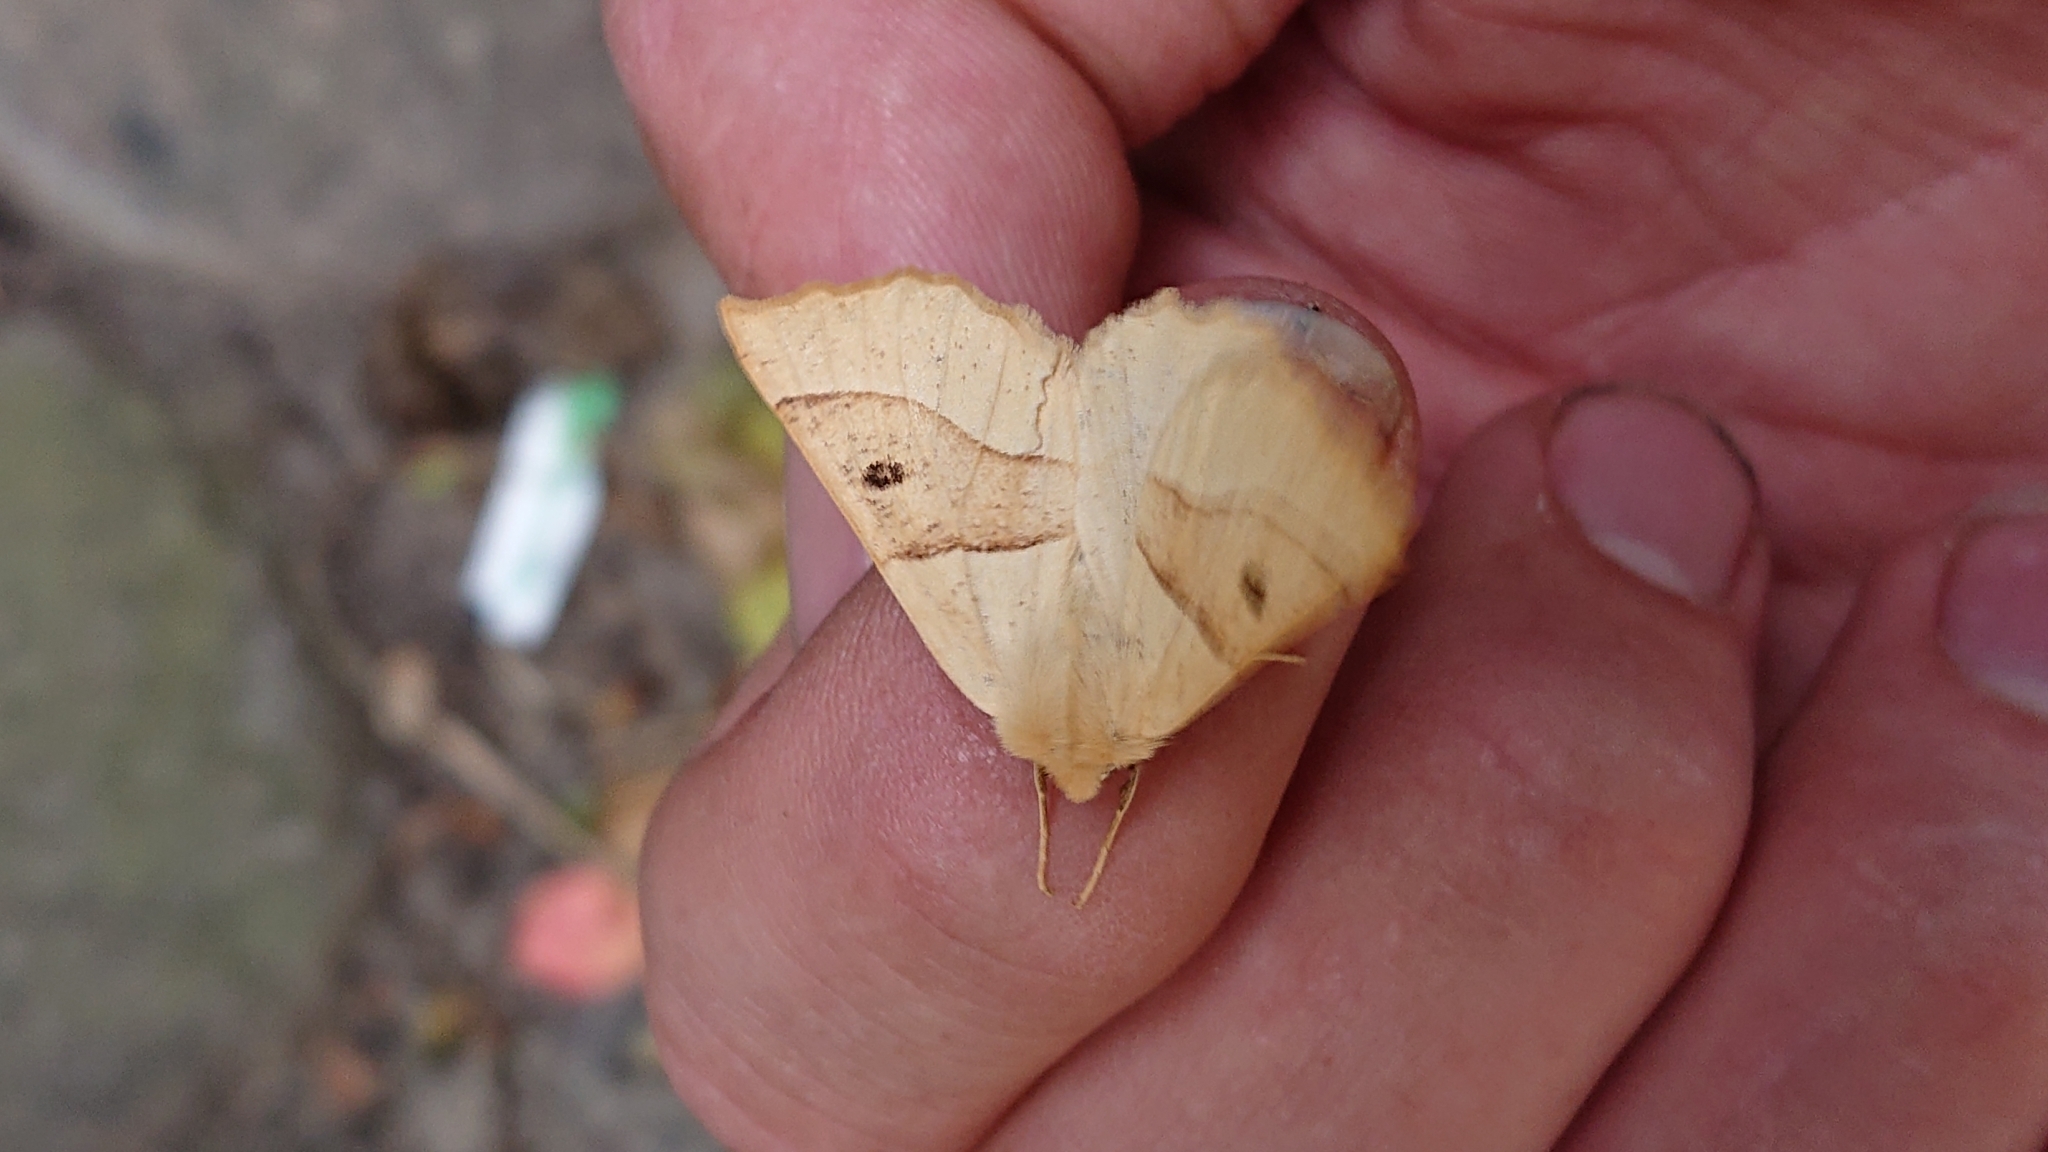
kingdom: Animalia
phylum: Arthropoda
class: Insecta
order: Lepidoptera
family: Geometridae
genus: Crocallis
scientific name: Crocallis elinguaria
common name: Scalloped oak
